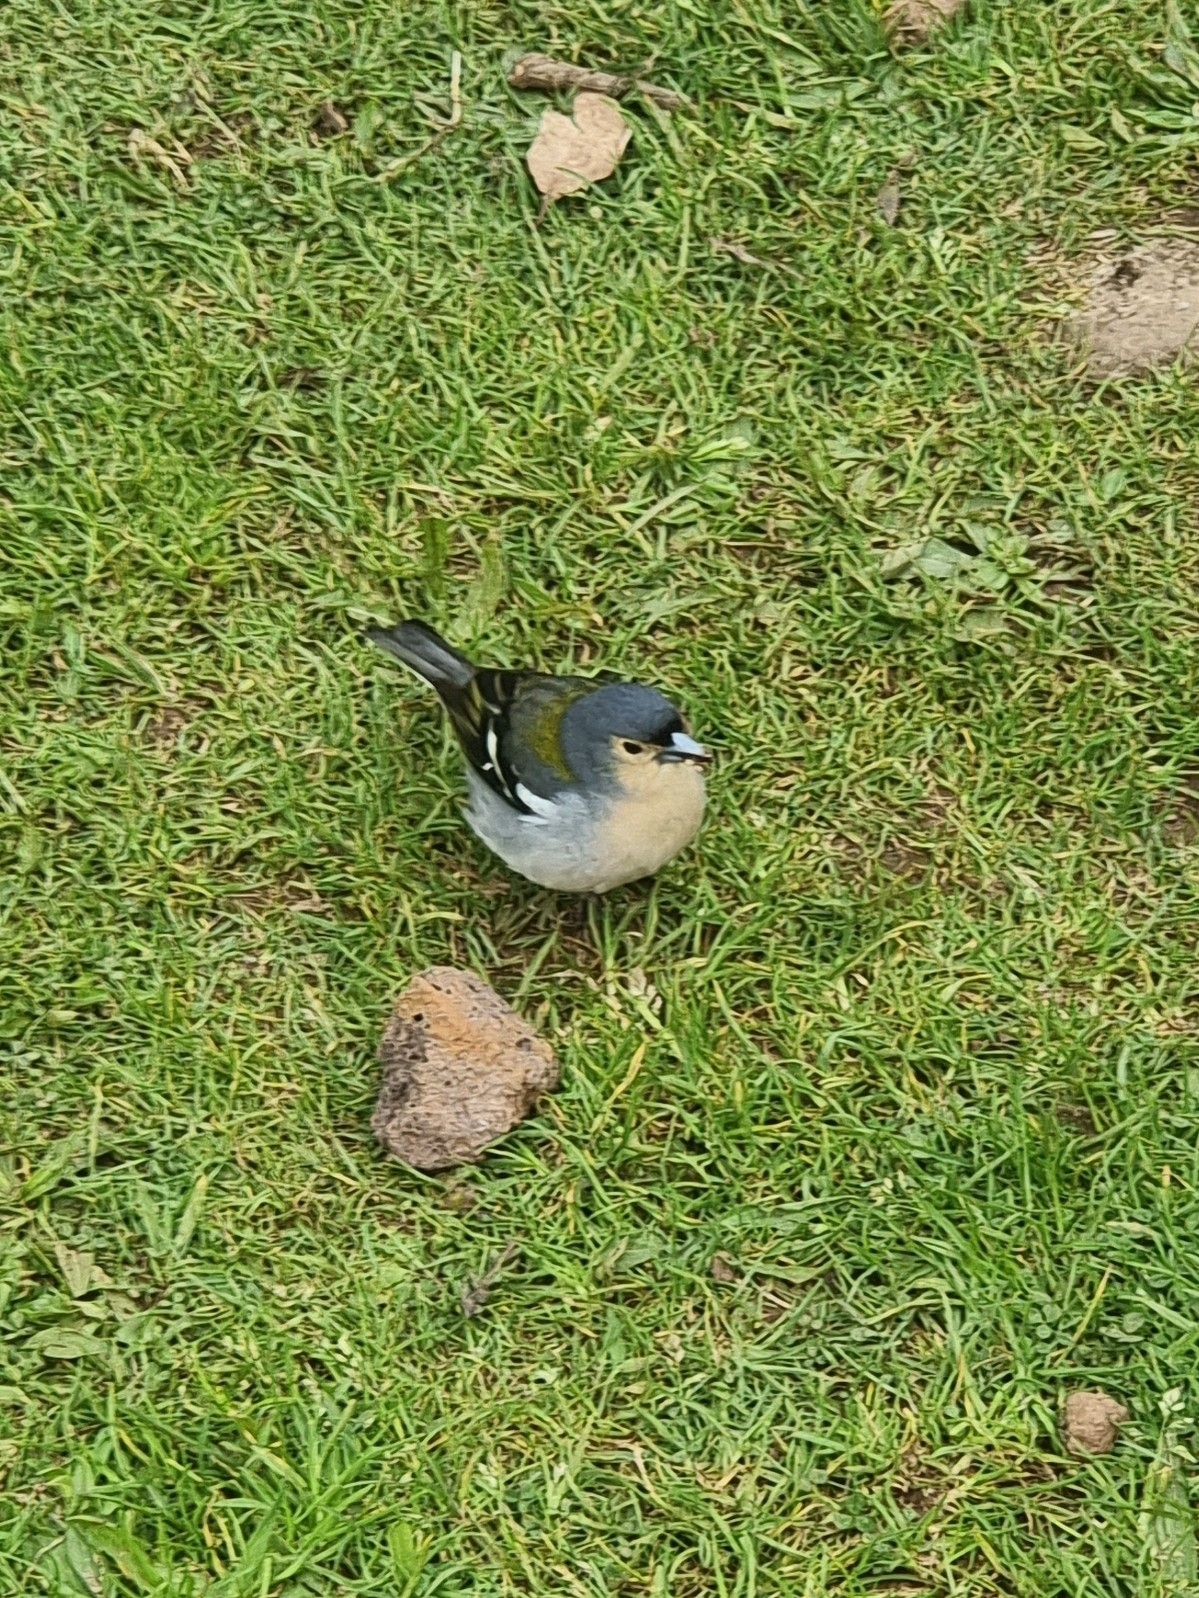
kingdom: Animalia
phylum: Chordata
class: Aves
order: Passeriformes
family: Fringillidae
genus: Fringilla
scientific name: Fringilla maderensis
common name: Madeira chaffinch
